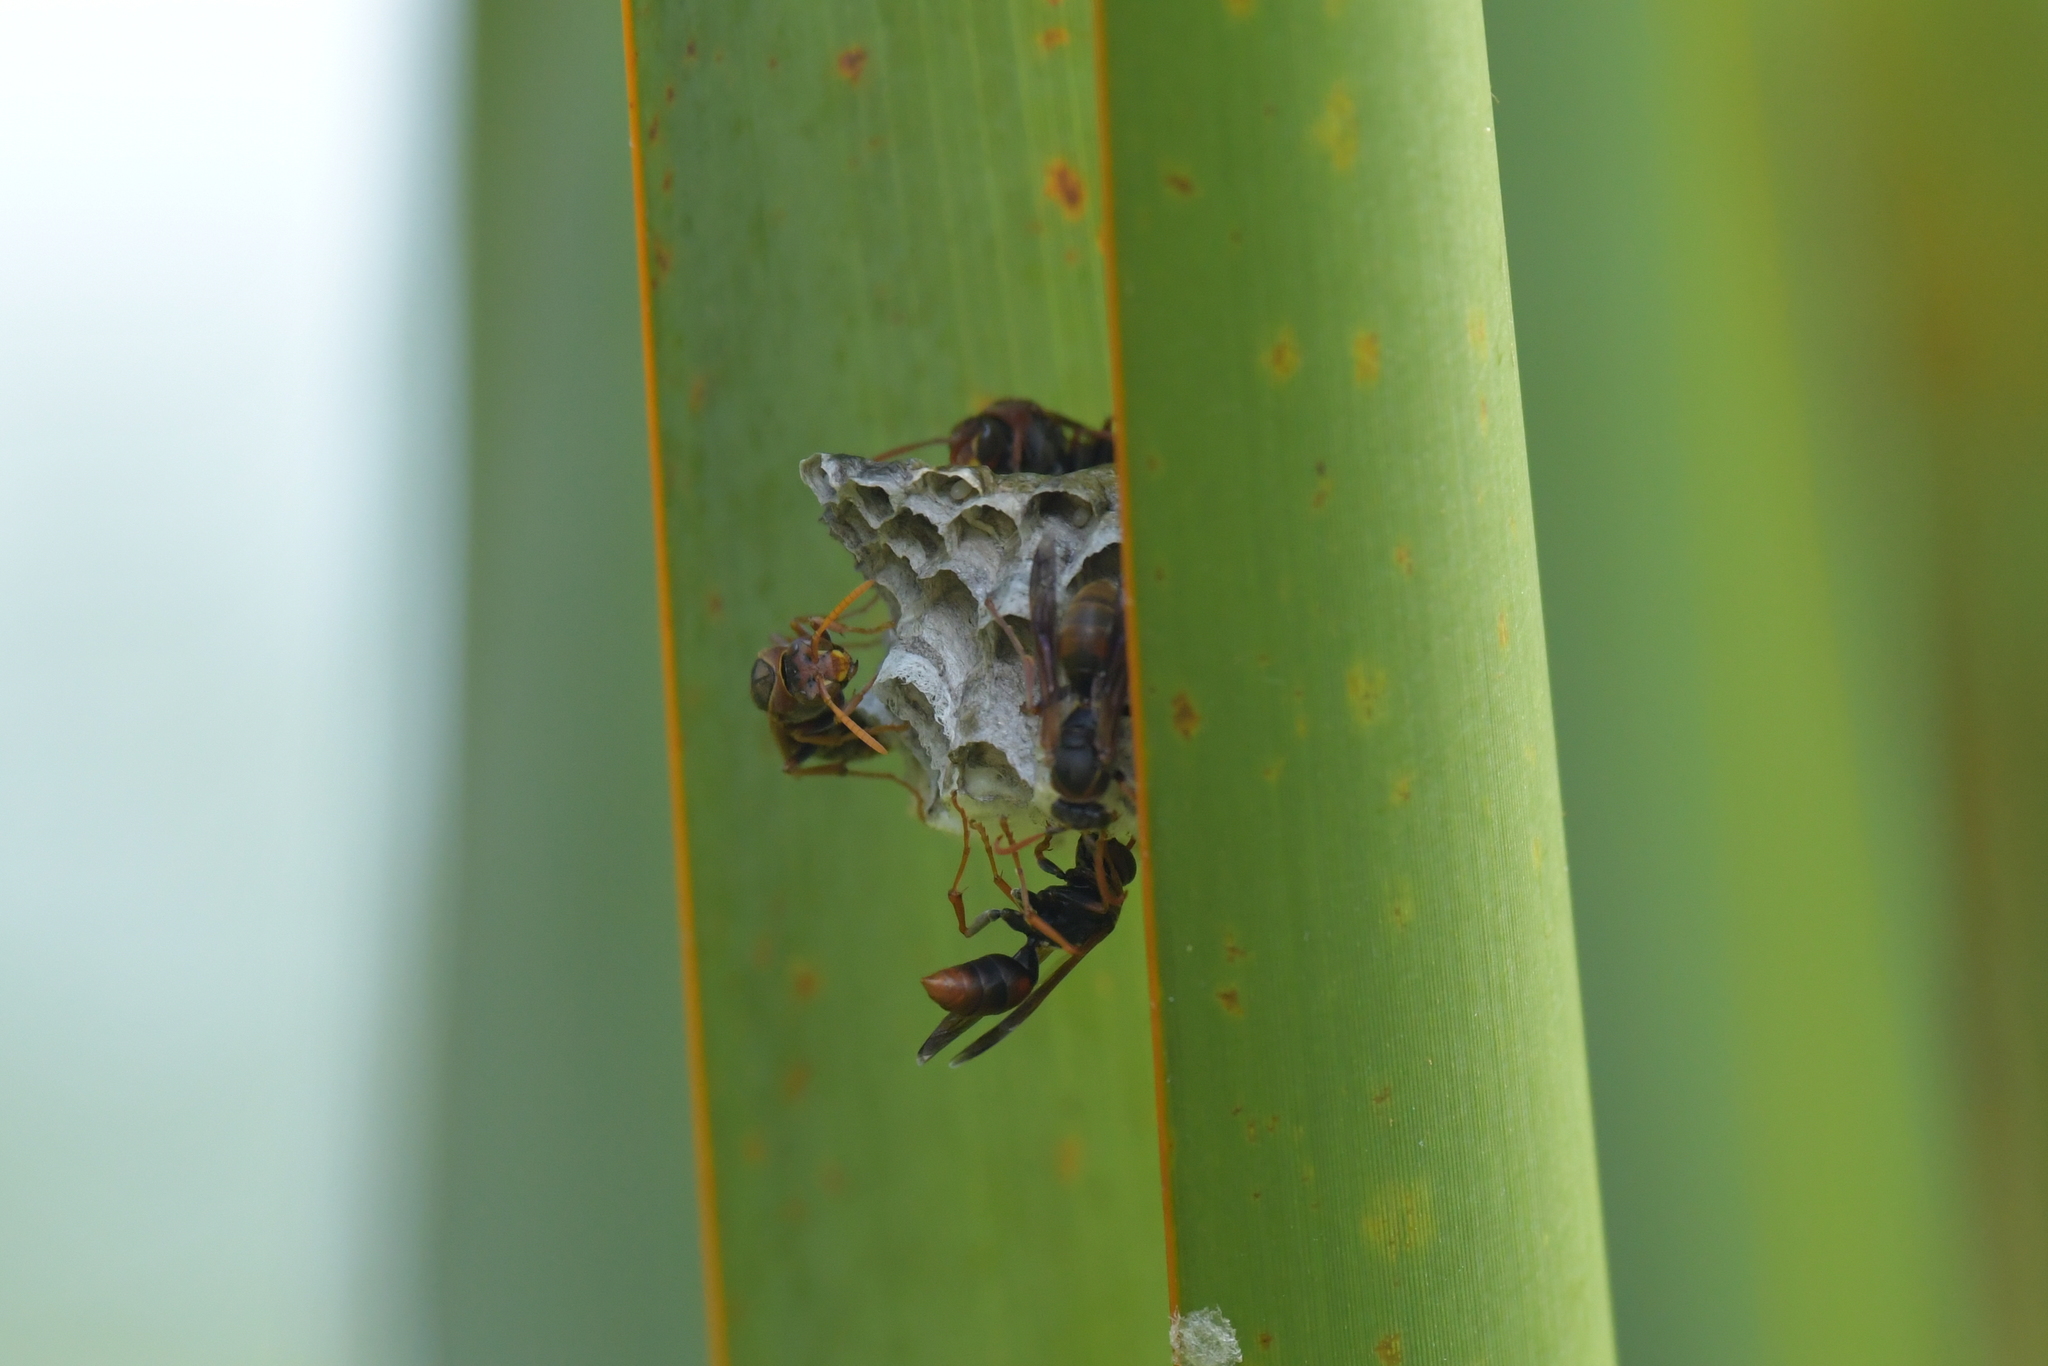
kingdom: Animalia
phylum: Arthropoda
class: Insecta
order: Hymenoptera
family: Eumenidae
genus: Polistes
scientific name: Polistes humilis
